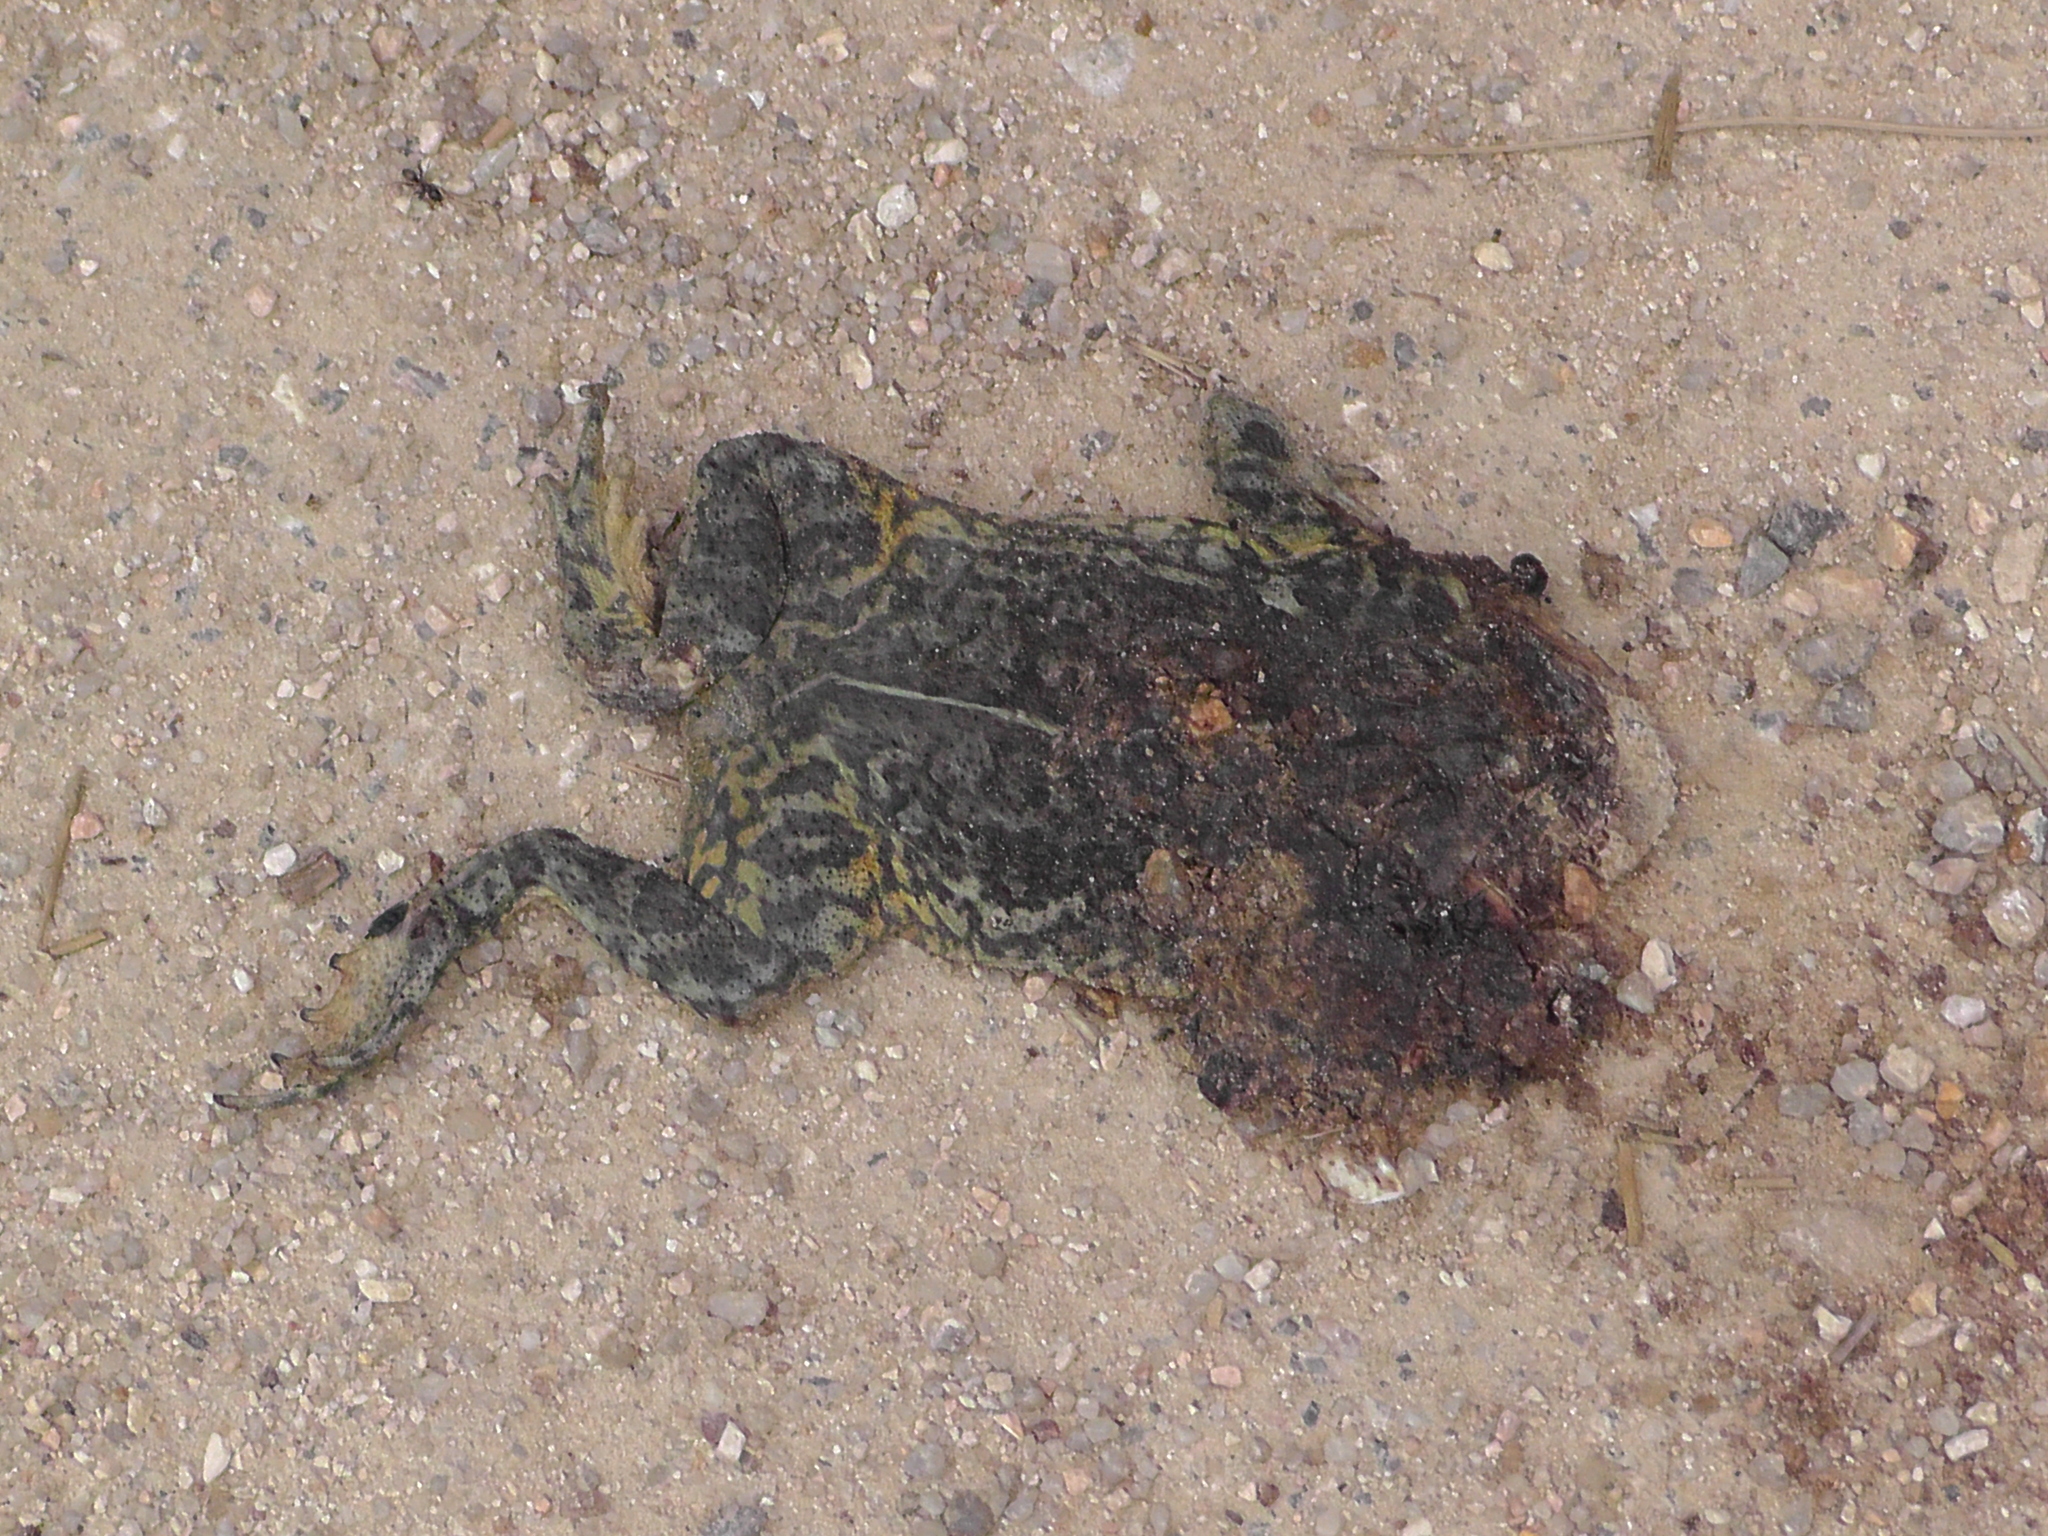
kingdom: Animalia
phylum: Chordata
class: Amphibia
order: Anura
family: Bufonidae
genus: Anaxyrus
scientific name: Anaxyrus woodhousii
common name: Woodhouse's toad
